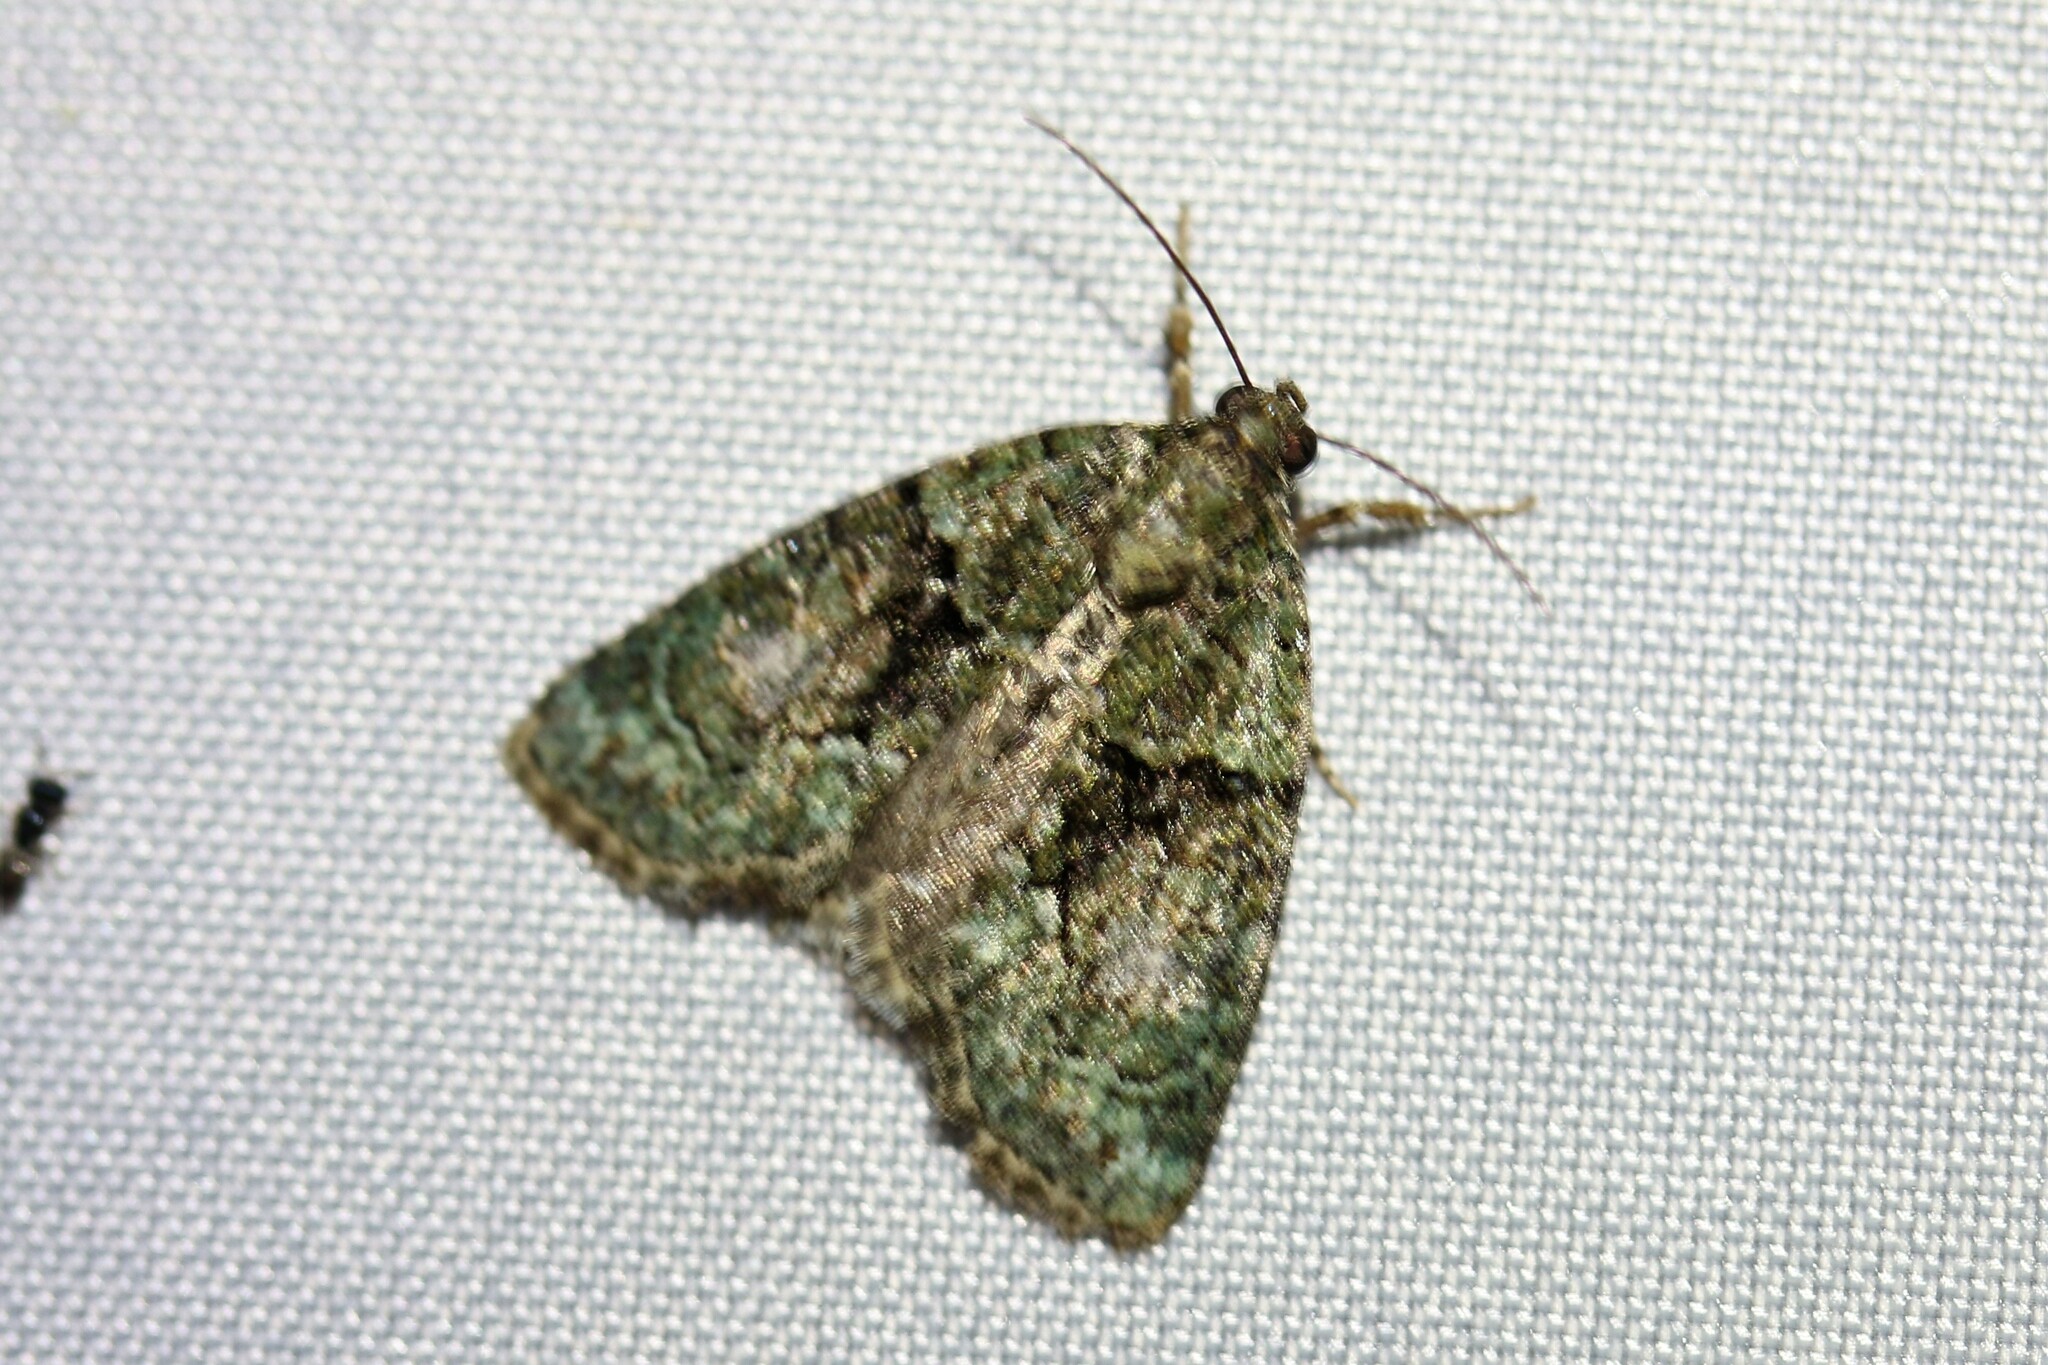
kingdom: Animalia
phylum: Arthropoda
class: Insecta
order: Lepidoptera
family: Noctuidae
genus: Cryphia
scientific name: Cryphia algae
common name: Tree-lichen beauty
